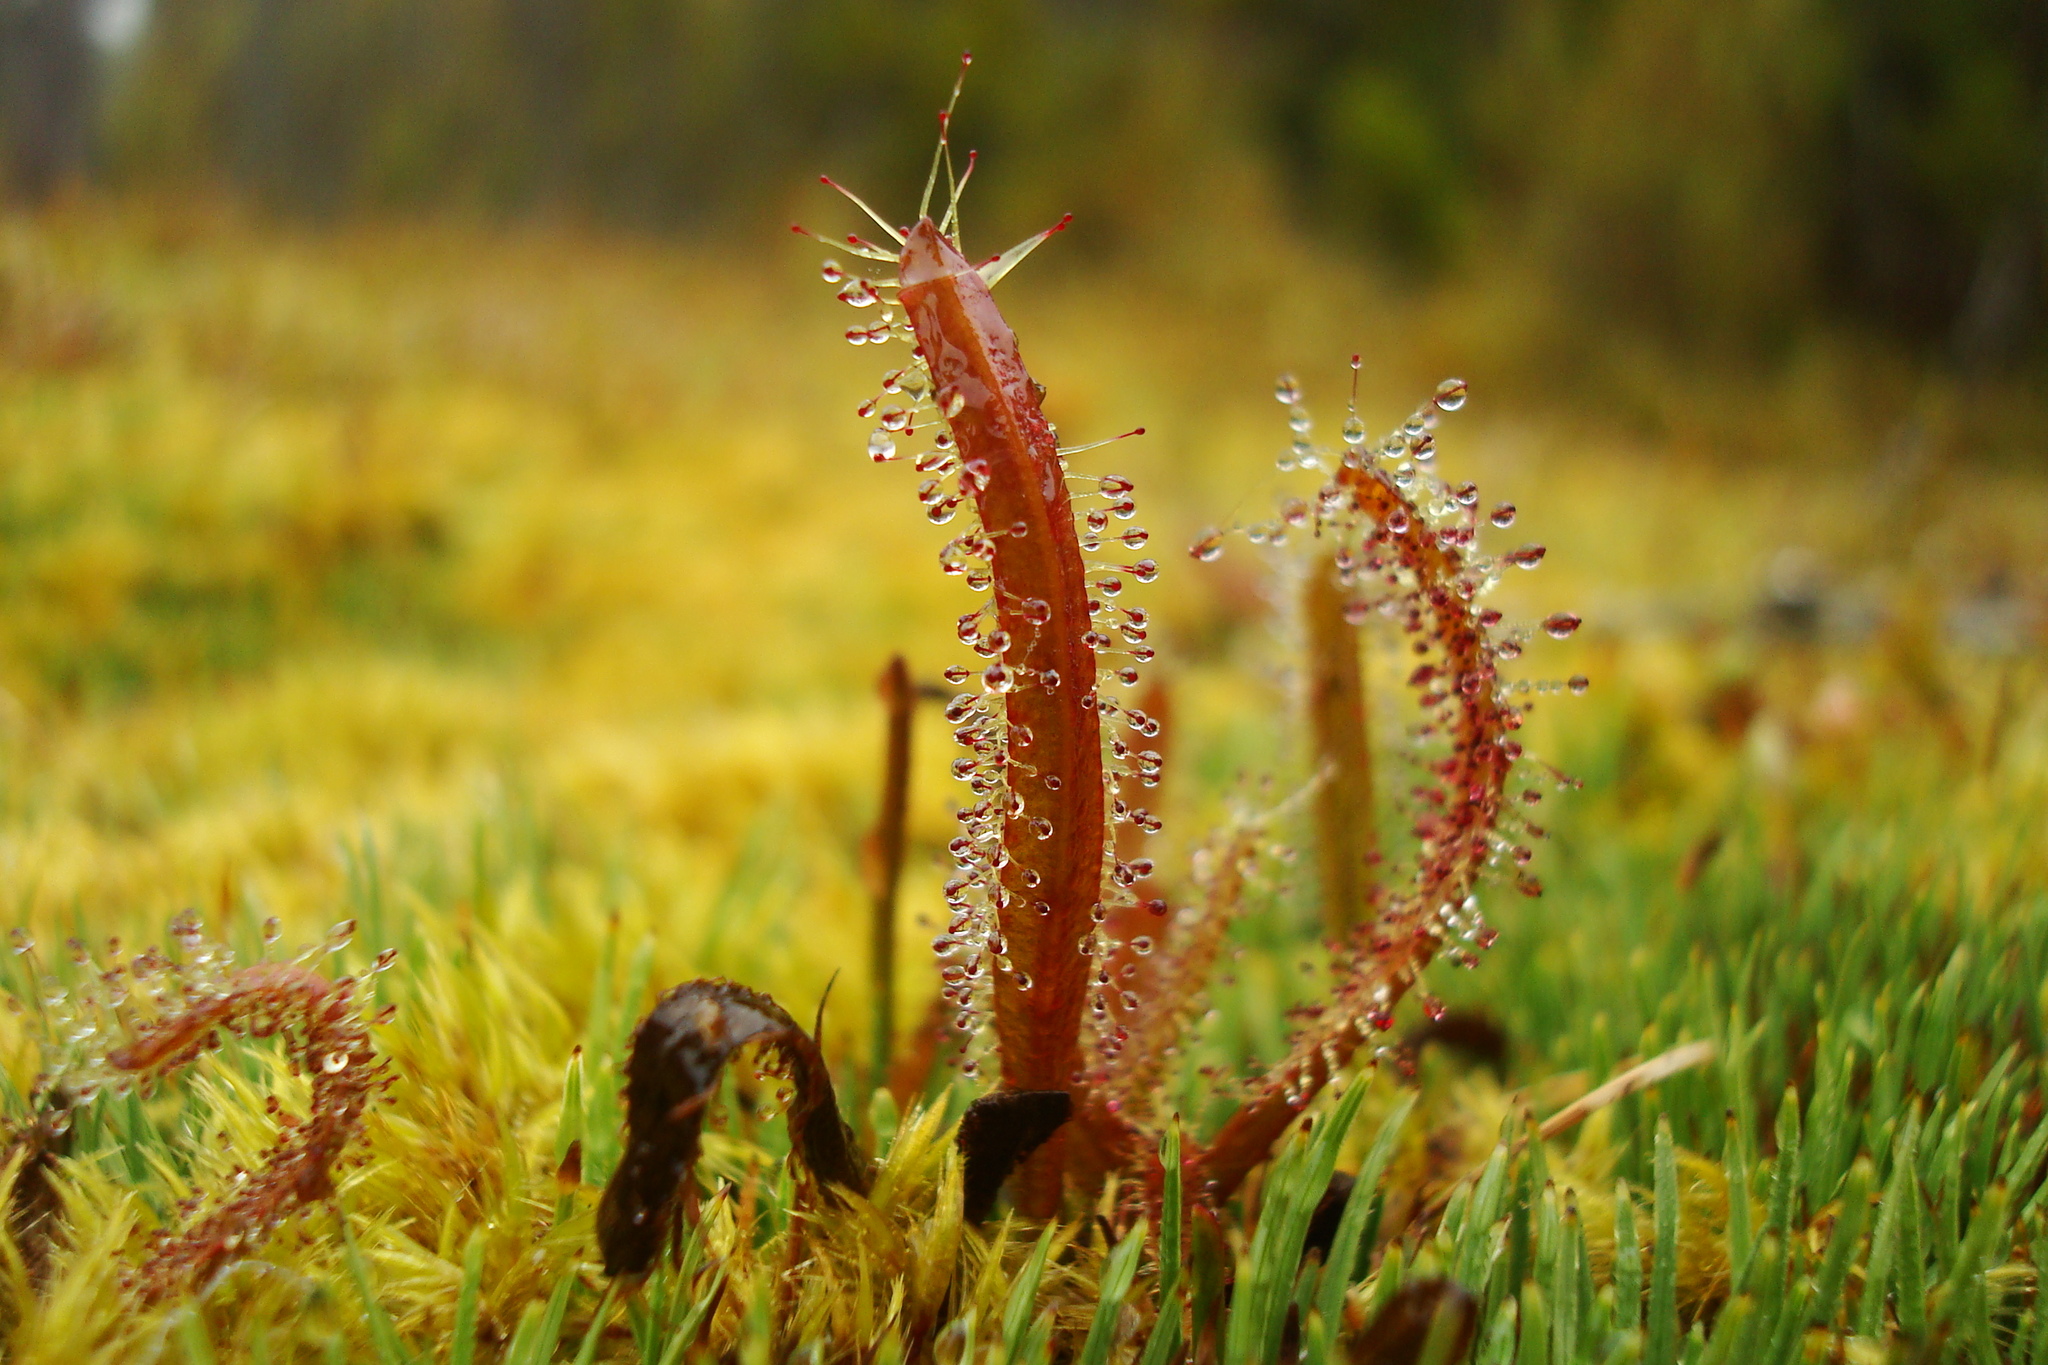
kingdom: Plantae
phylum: Tracheophyta
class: Magnoliopsida
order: Caryophyllales
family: Droseraceae
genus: Drosera
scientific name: Drosera arcturi
